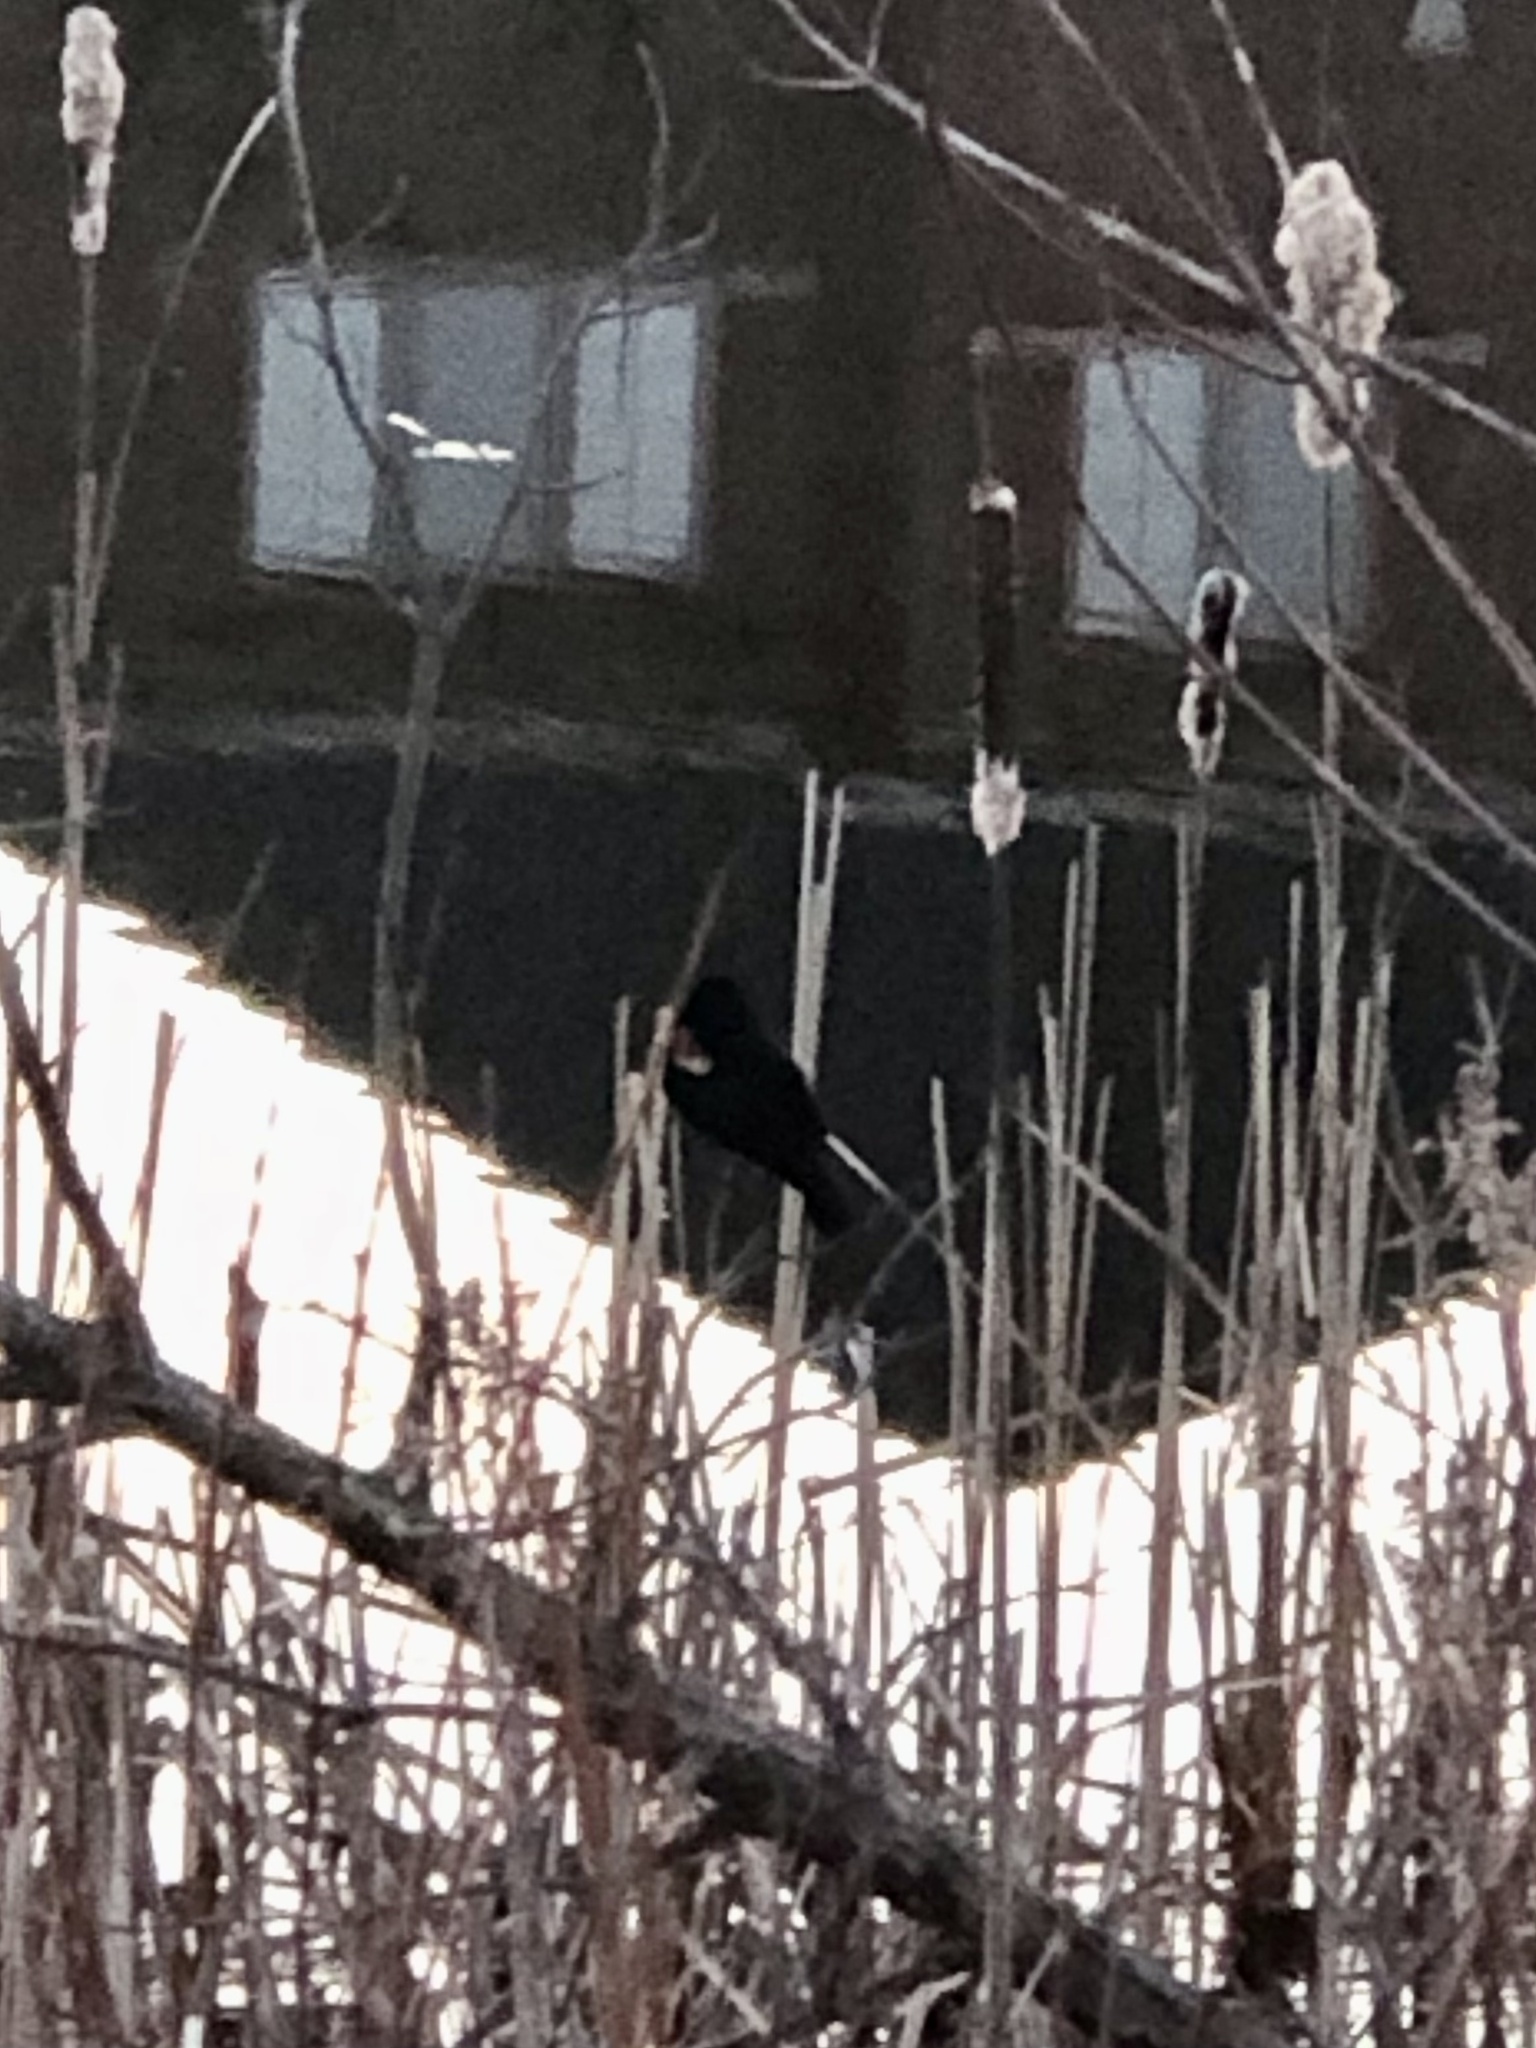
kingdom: Animalia
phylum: Chordata
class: Aves
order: Passeriformes
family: Icteridae
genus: Agelaius
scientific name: Agelaius phoeniceus
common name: Red-winged blackbird
